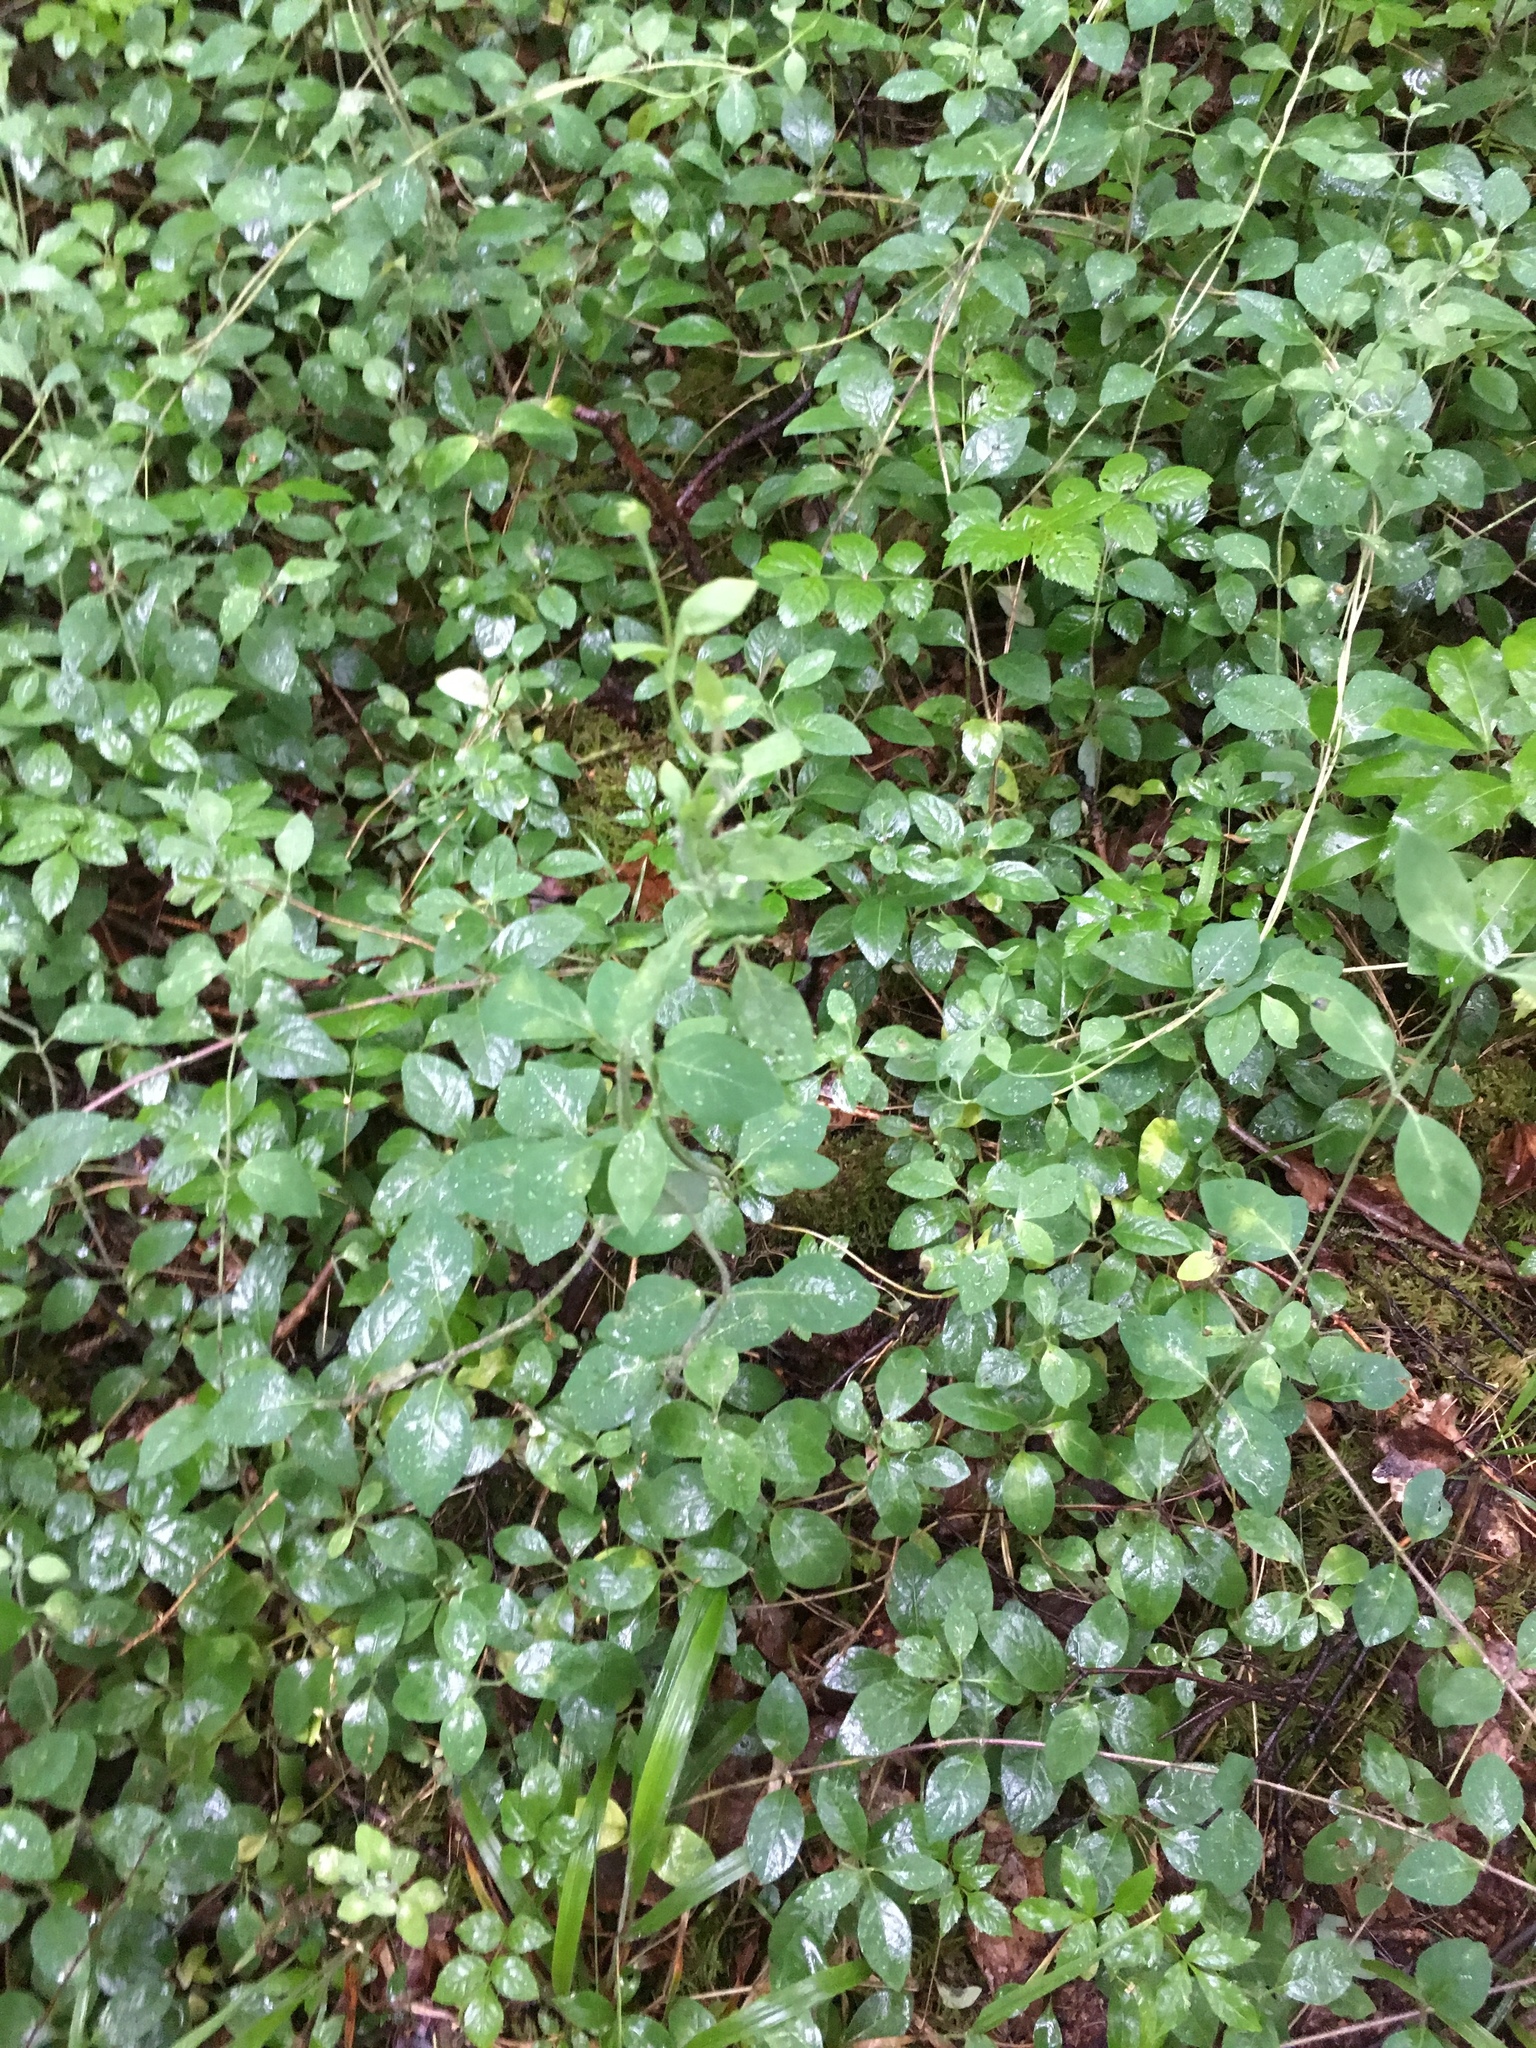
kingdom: Plantae
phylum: Tracheophyta
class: Magnoliopsida
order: Dipsacales
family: Caprifoliaceae
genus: Lonicera
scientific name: Lonicera periclymenum
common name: European honeysuckle
